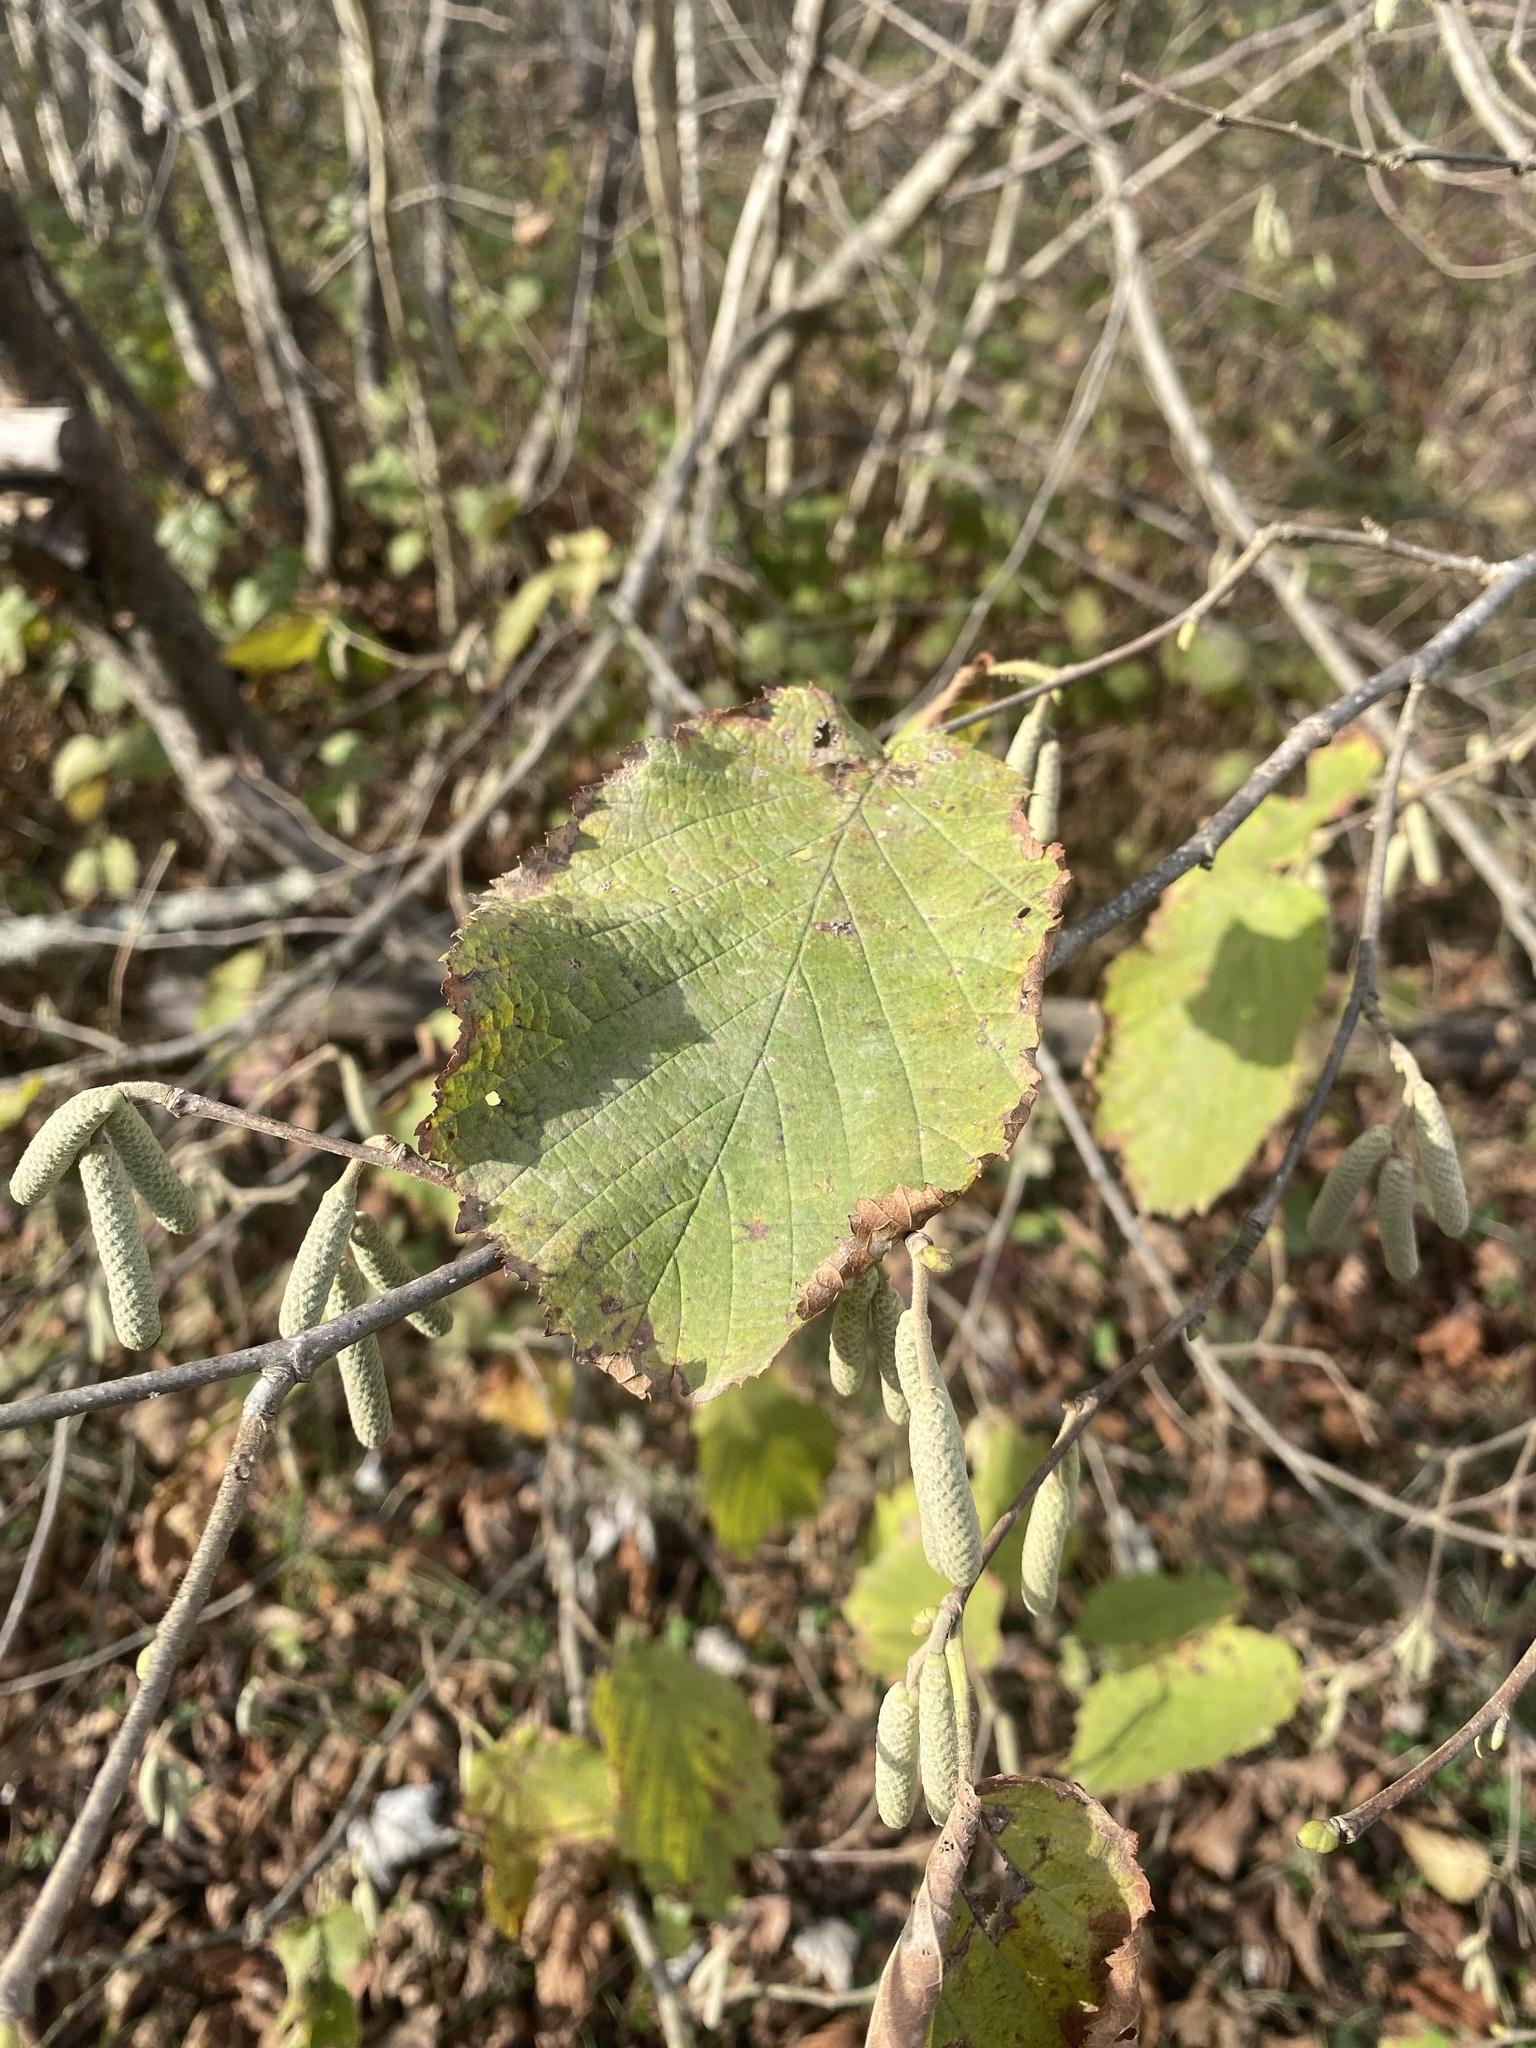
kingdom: Plantae
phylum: Tracheophyta
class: Magnoliopsida
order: Fagales
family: Betulaceae
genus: Corylus
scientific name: Corylus avellana
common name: European hazel
